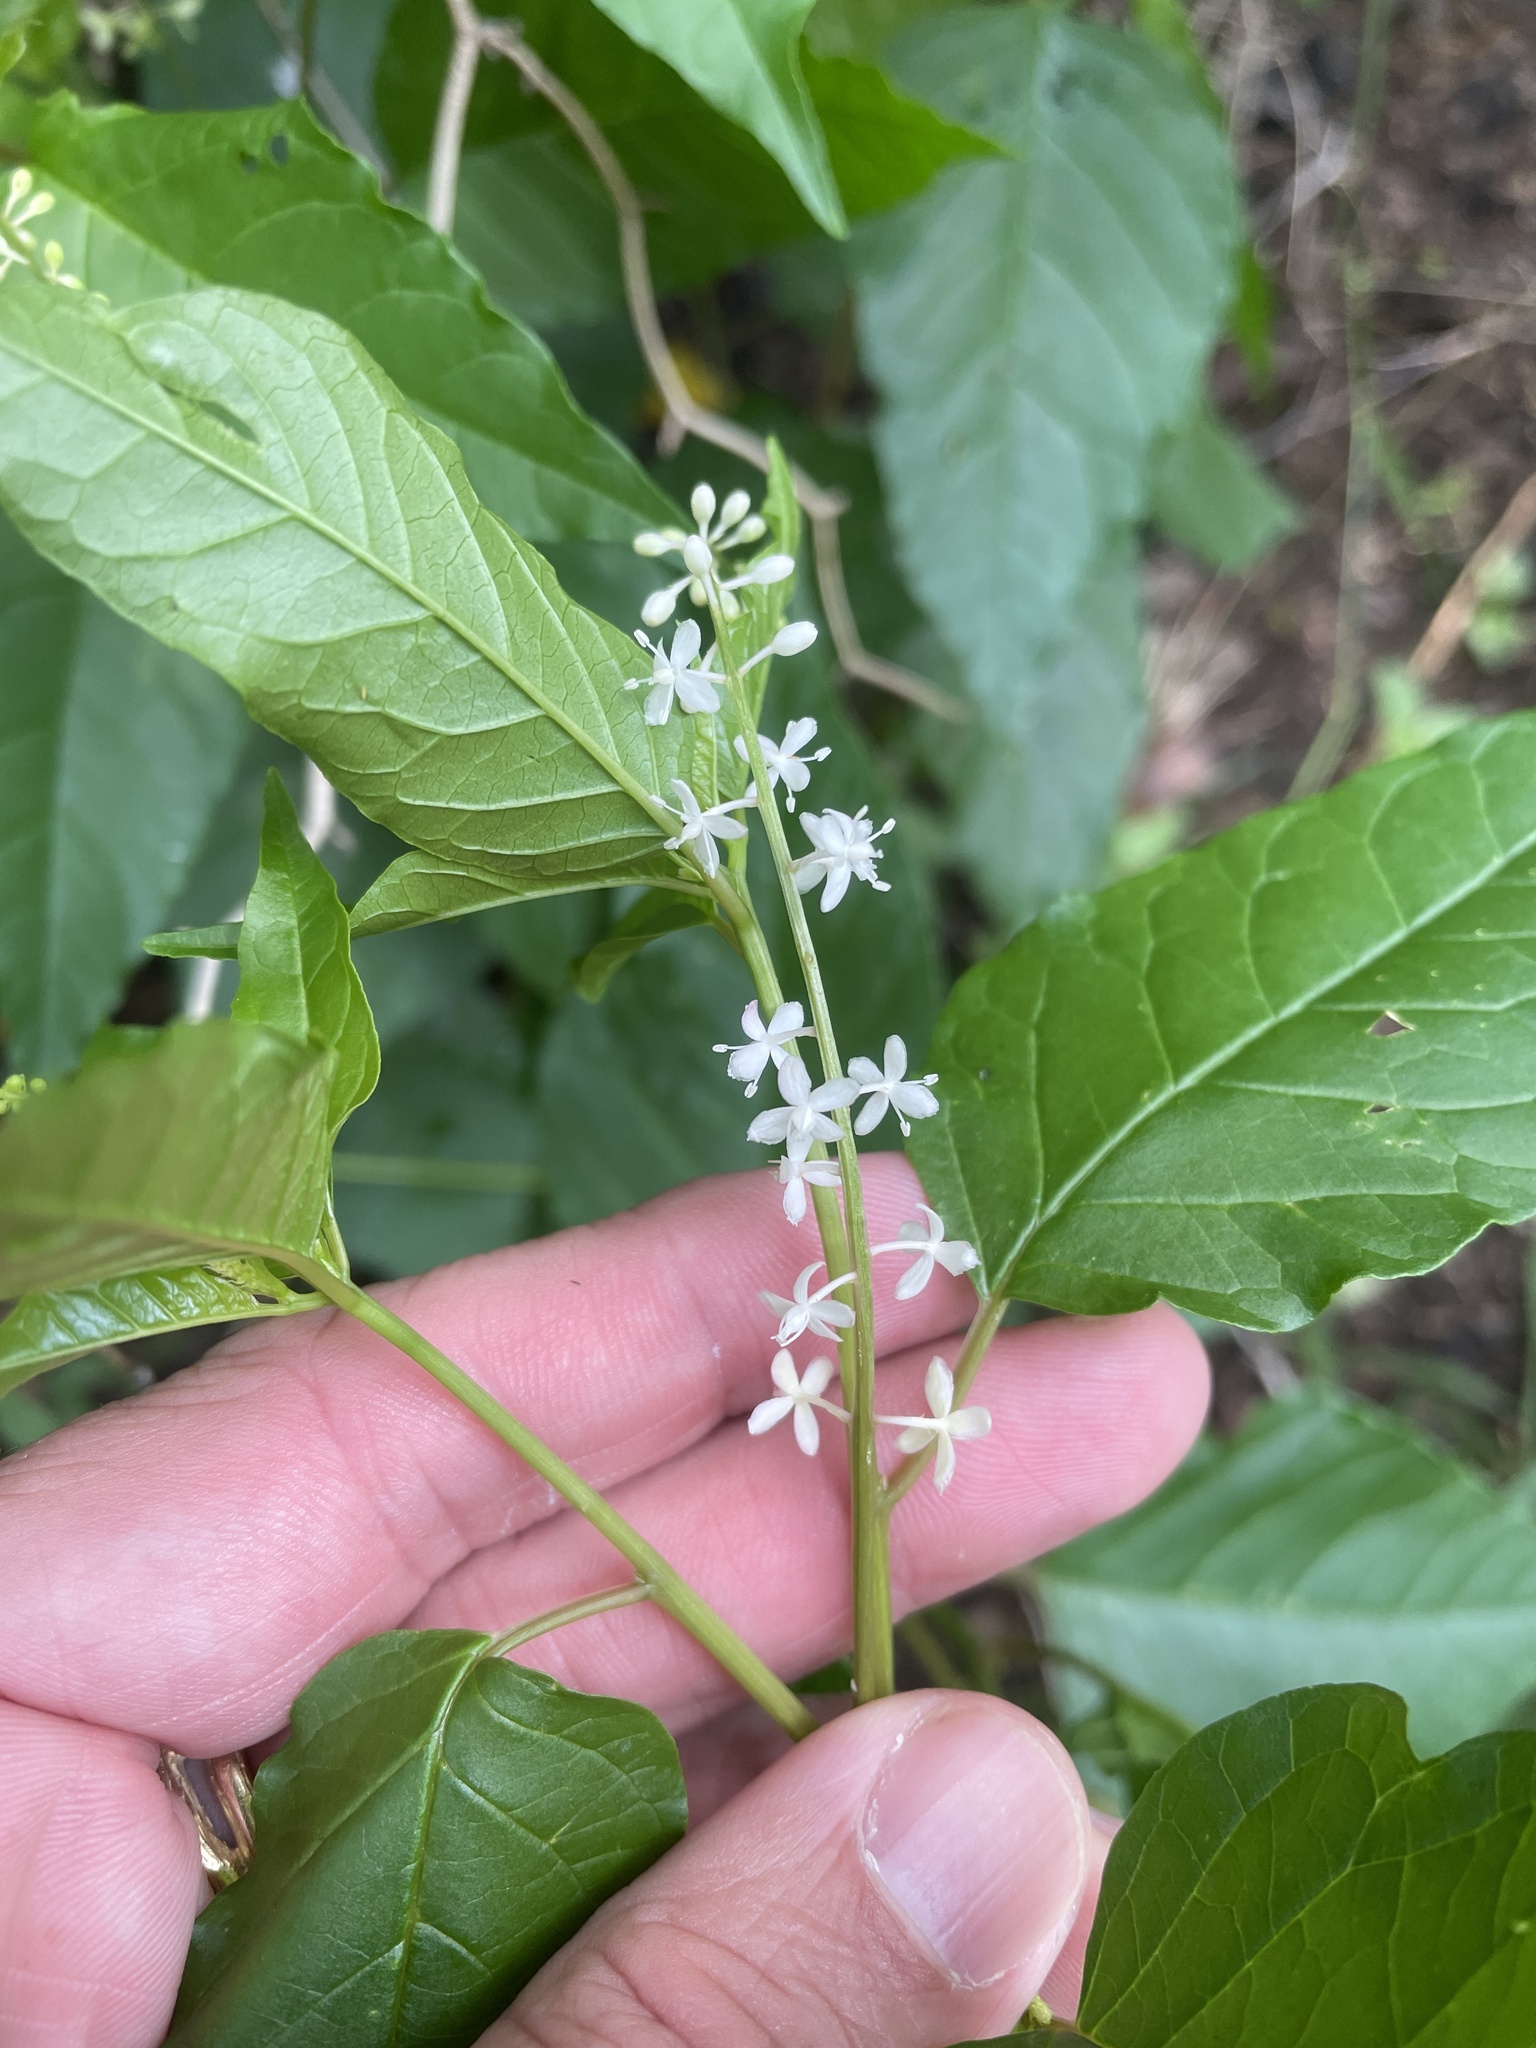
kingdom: Plantae
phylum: Tracheophyta
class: Magnoliopsida
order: Caryophyllales
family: Phytolaccaceae
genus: Rivina
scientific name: Rivina humilis
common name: Rougeplant
